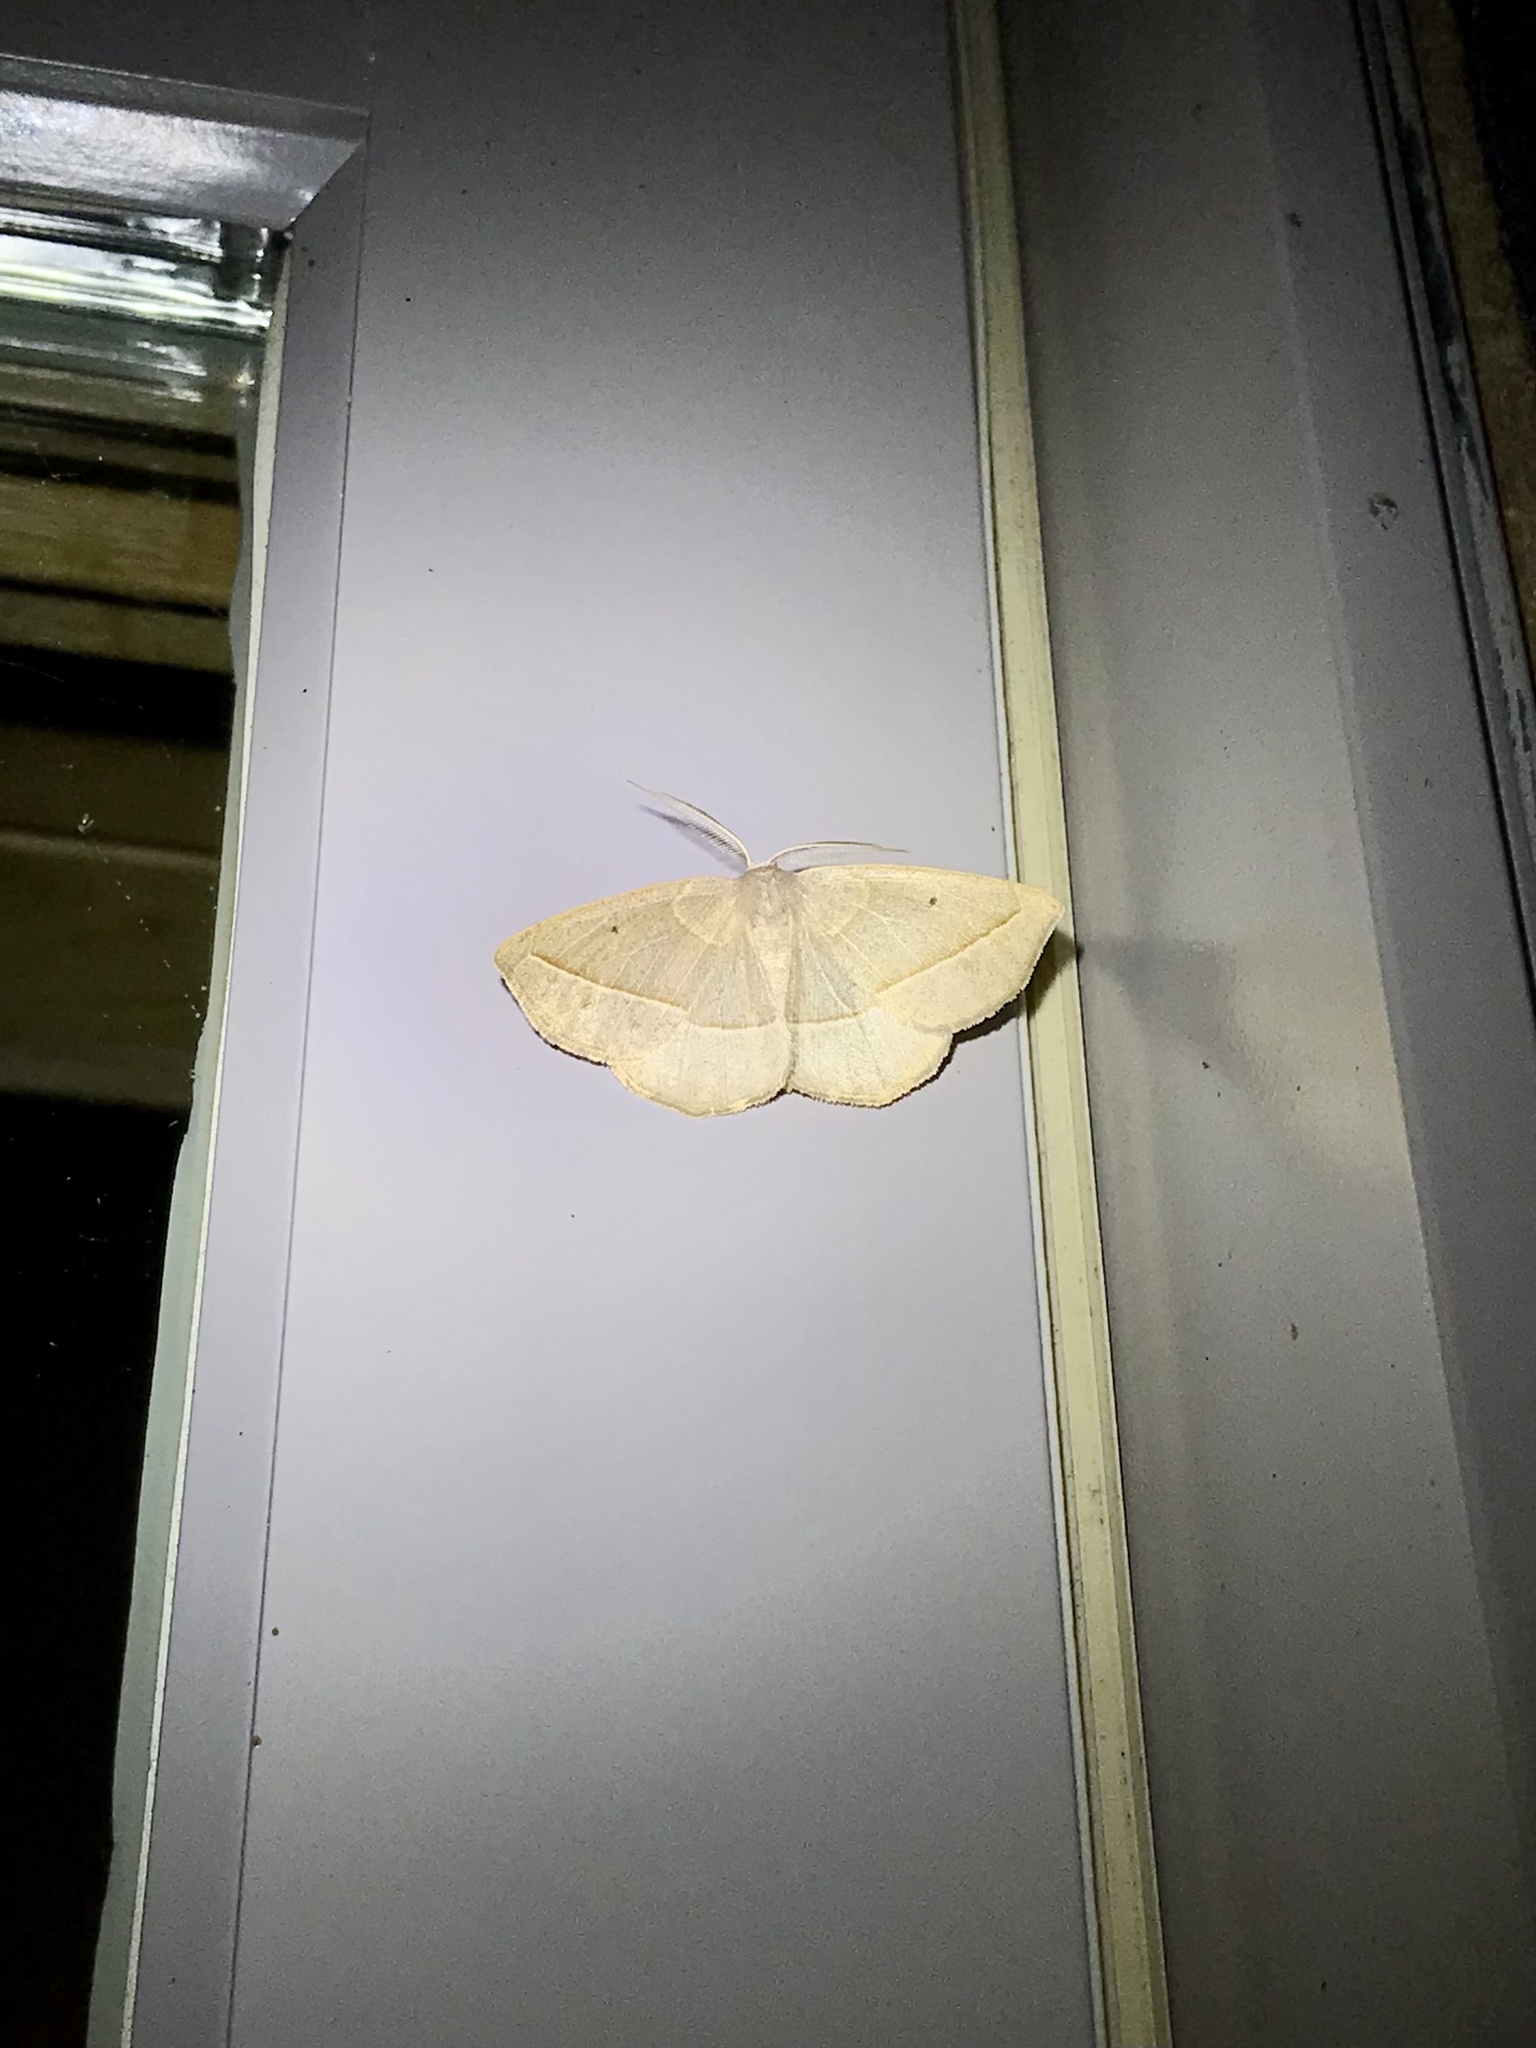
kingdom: Animalia
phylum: Arthropoda
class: Insecta
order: Lepidoptera
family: Geometridae
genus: Eusarca
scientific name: Eusarca confusaria
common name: Confused eusarca
